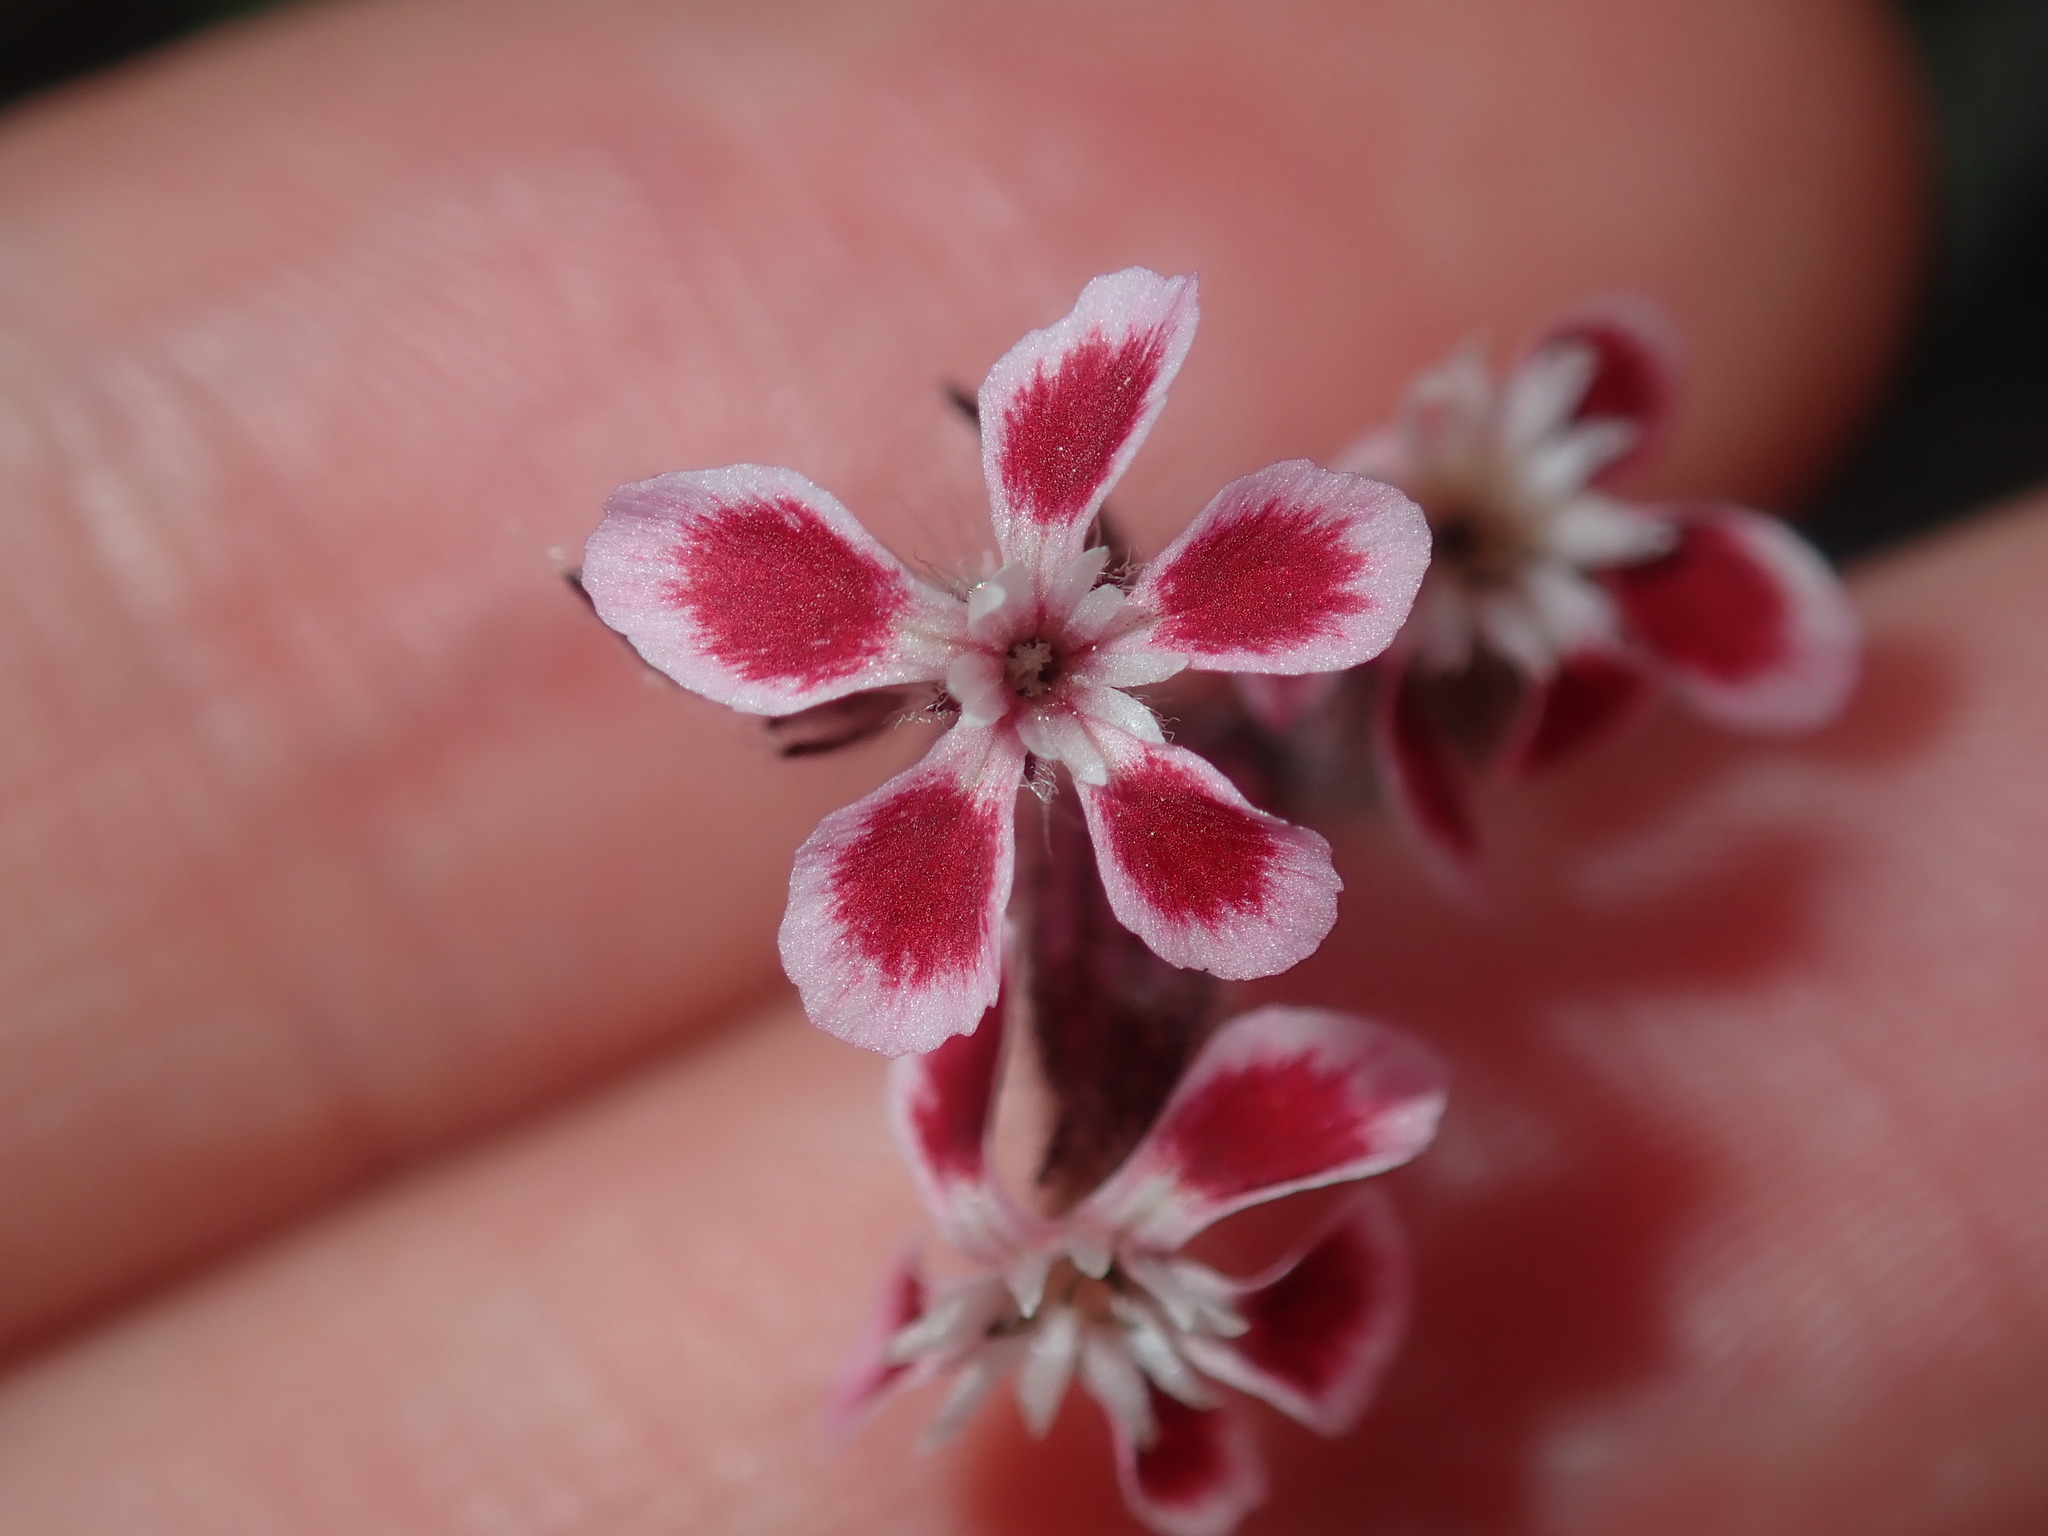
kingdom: Plantae
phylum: Tracheophyta
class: Magnoliopsida
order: Caryophyllales
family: Caryophyllaceae
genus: Silene
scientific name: Silene gallica
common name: Small-flowered catchfly
